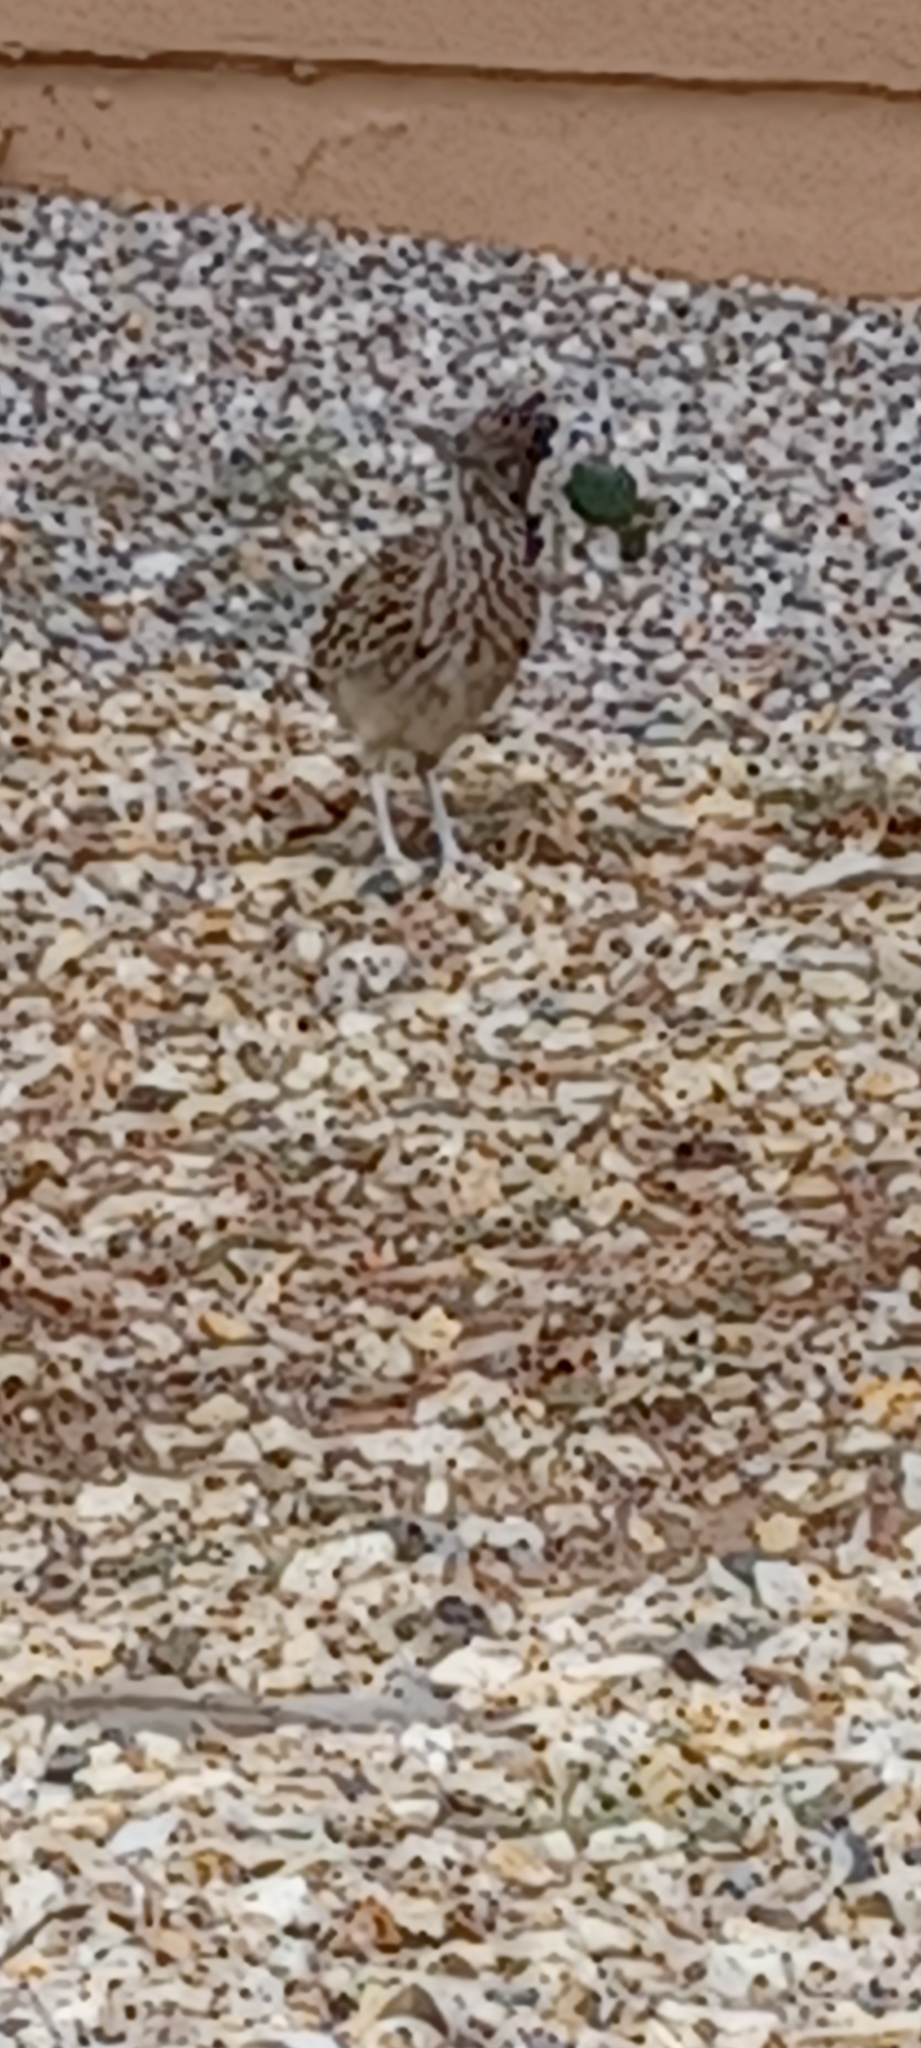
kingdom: Animalia
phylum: Chordata
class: Aves
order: Cuculiformes
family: Cuculidae
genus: Geococcyx
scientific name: Geococcyx californianus
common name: Greater roadrunner
